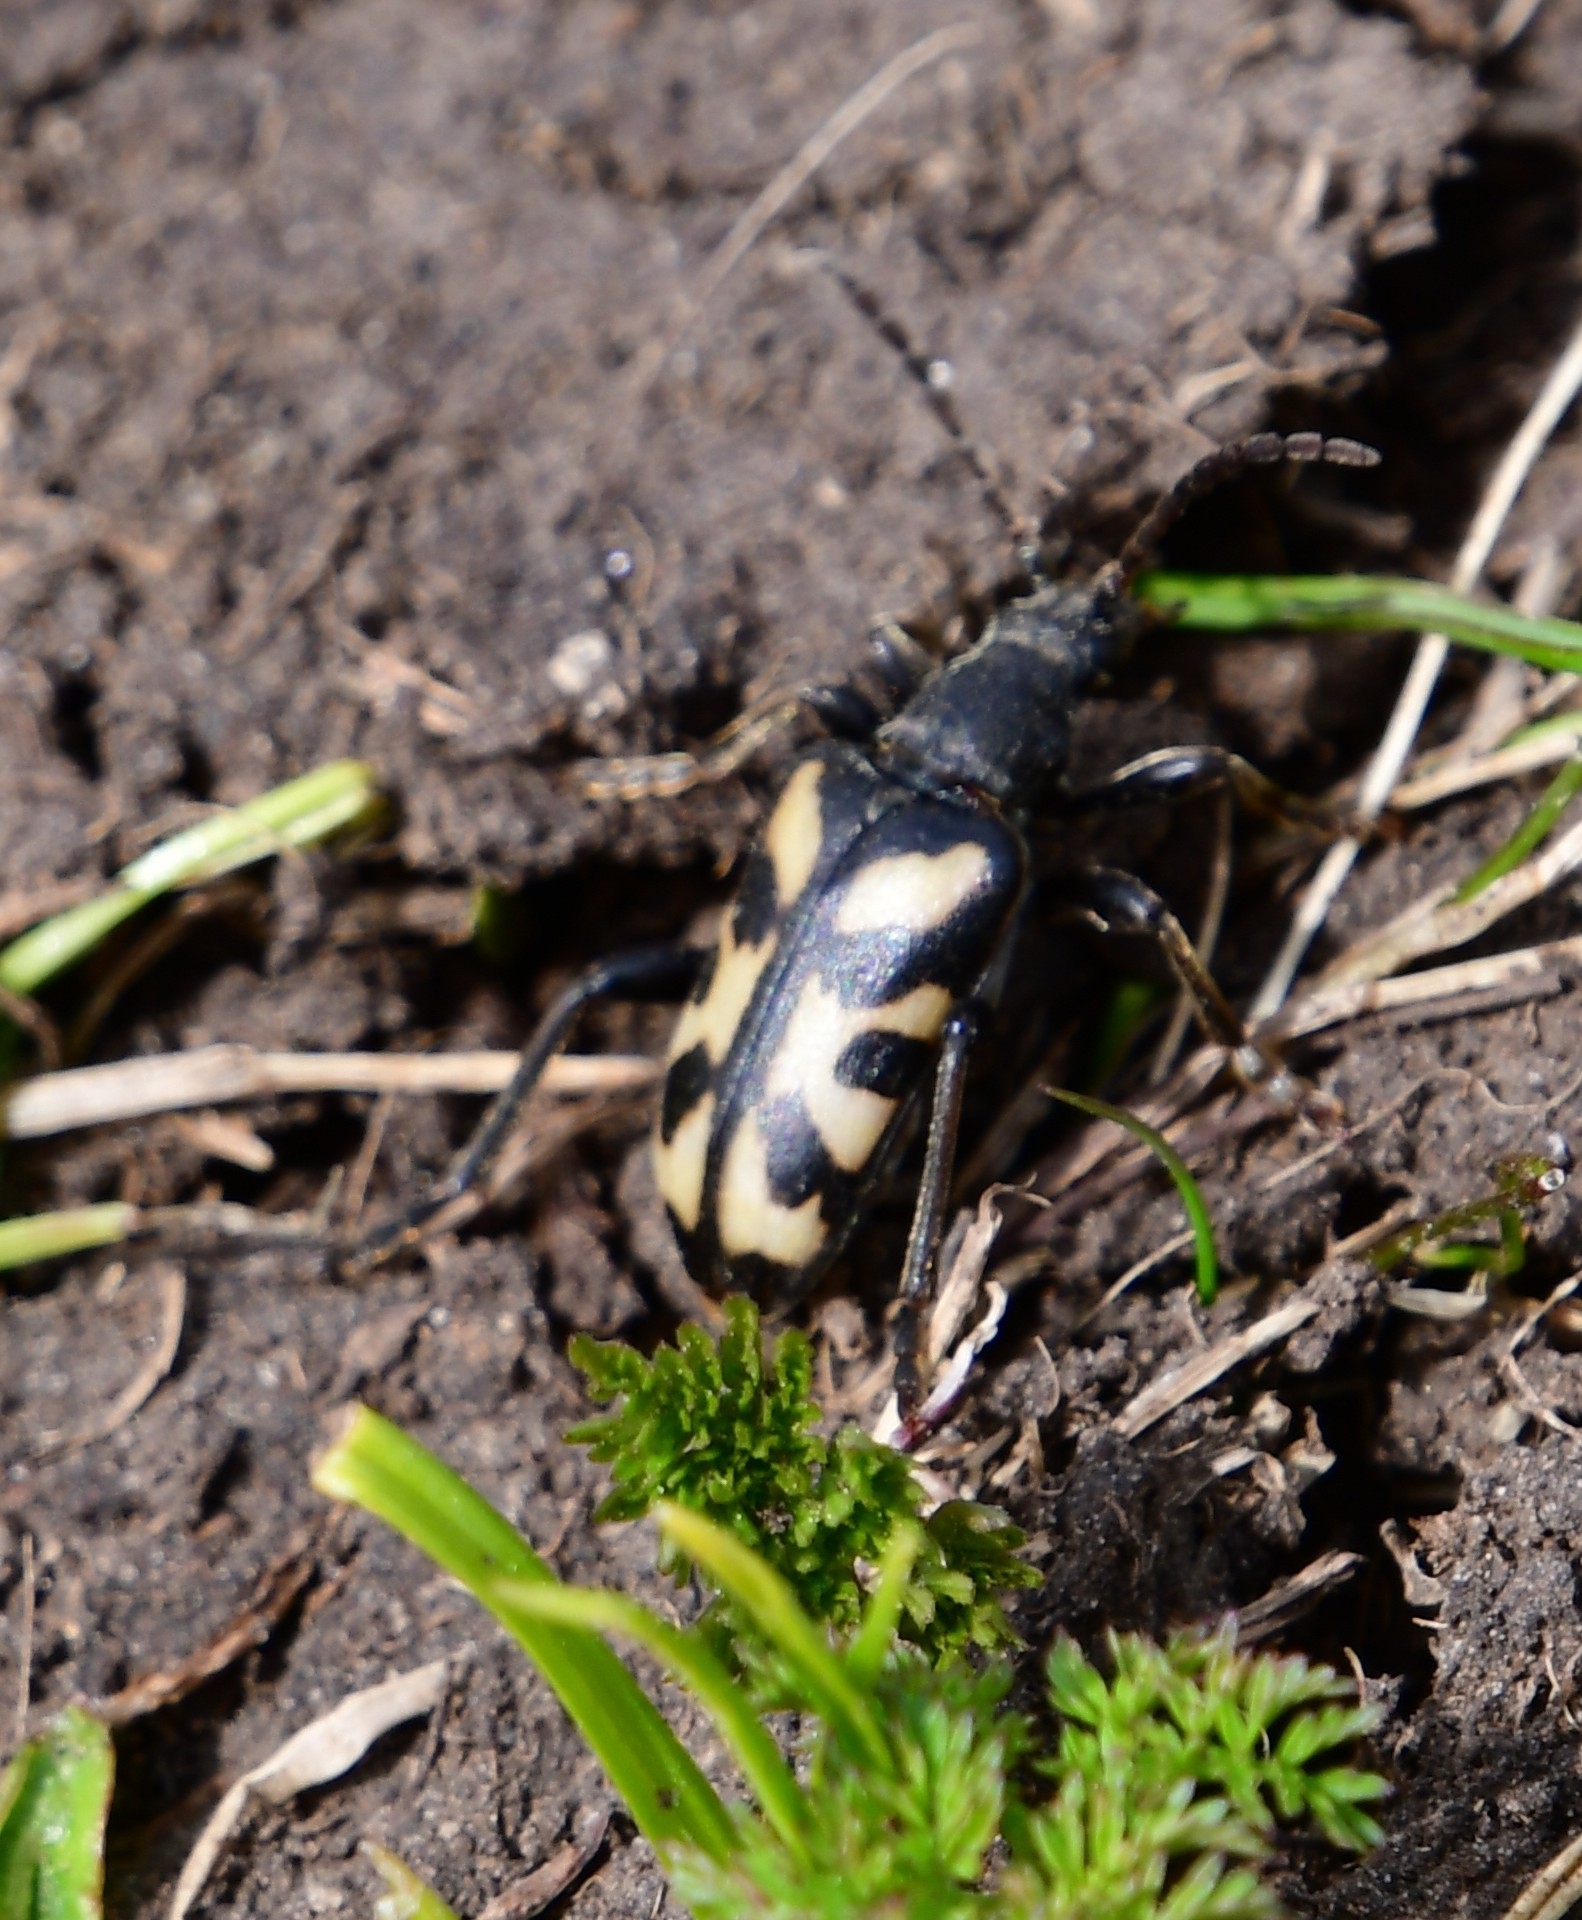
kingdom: Animalia
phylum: Arthropoda
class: Insecta
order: Coleoptera
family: Cerambycidae
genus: Brachyta
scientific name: Brachyta rosti
